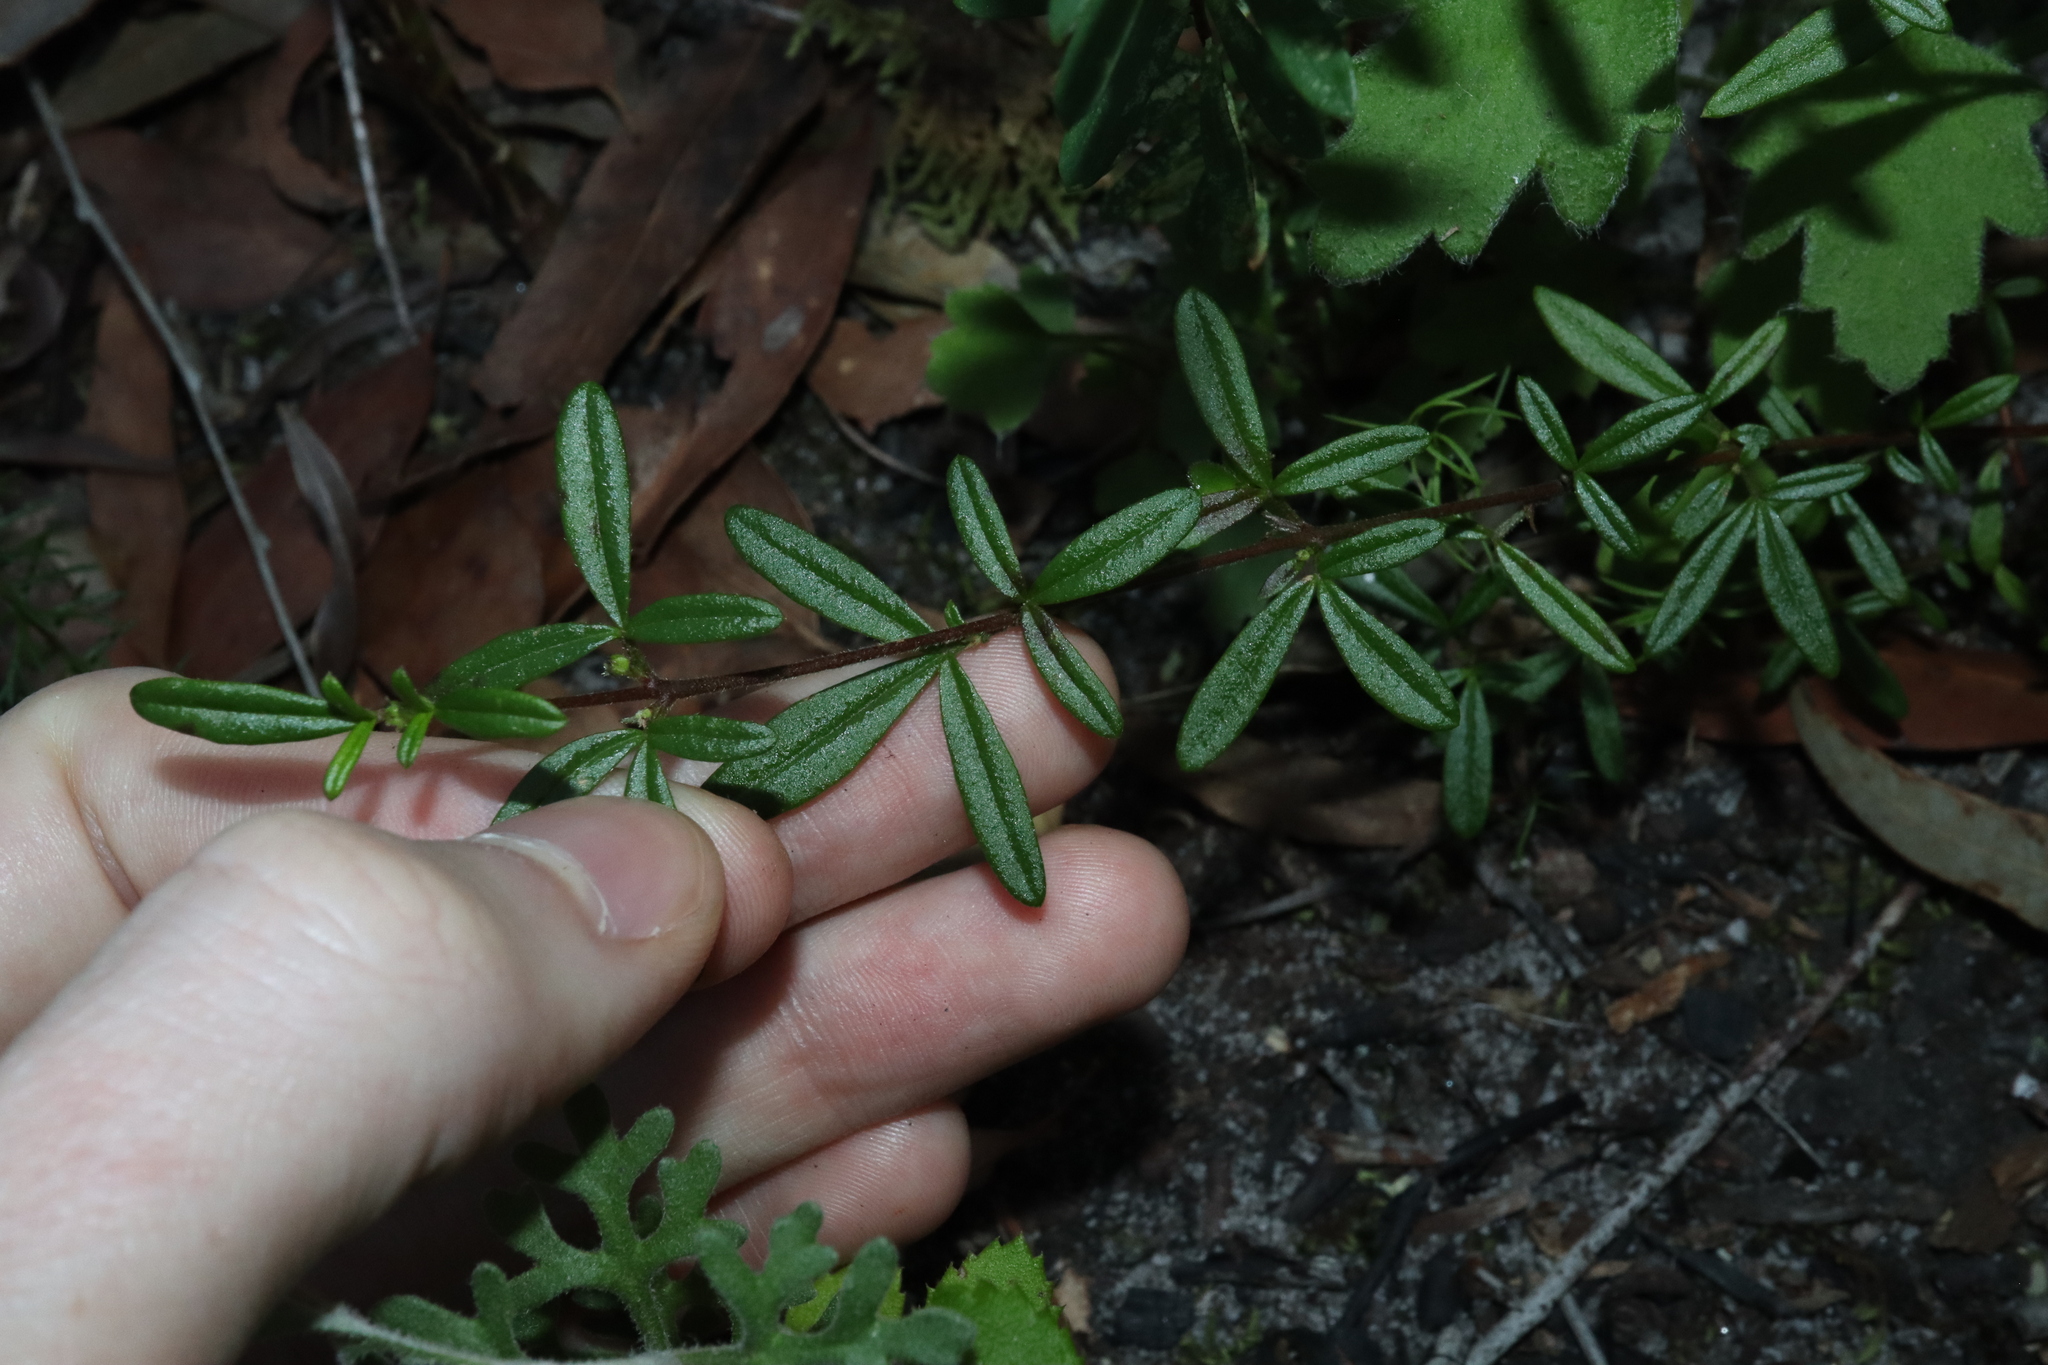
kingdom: Plantae
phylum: Tracheophyta
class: Magnoliopsida
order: Sapindales
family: Rutaceae
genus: Zieria
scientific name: Zieria pilosa
